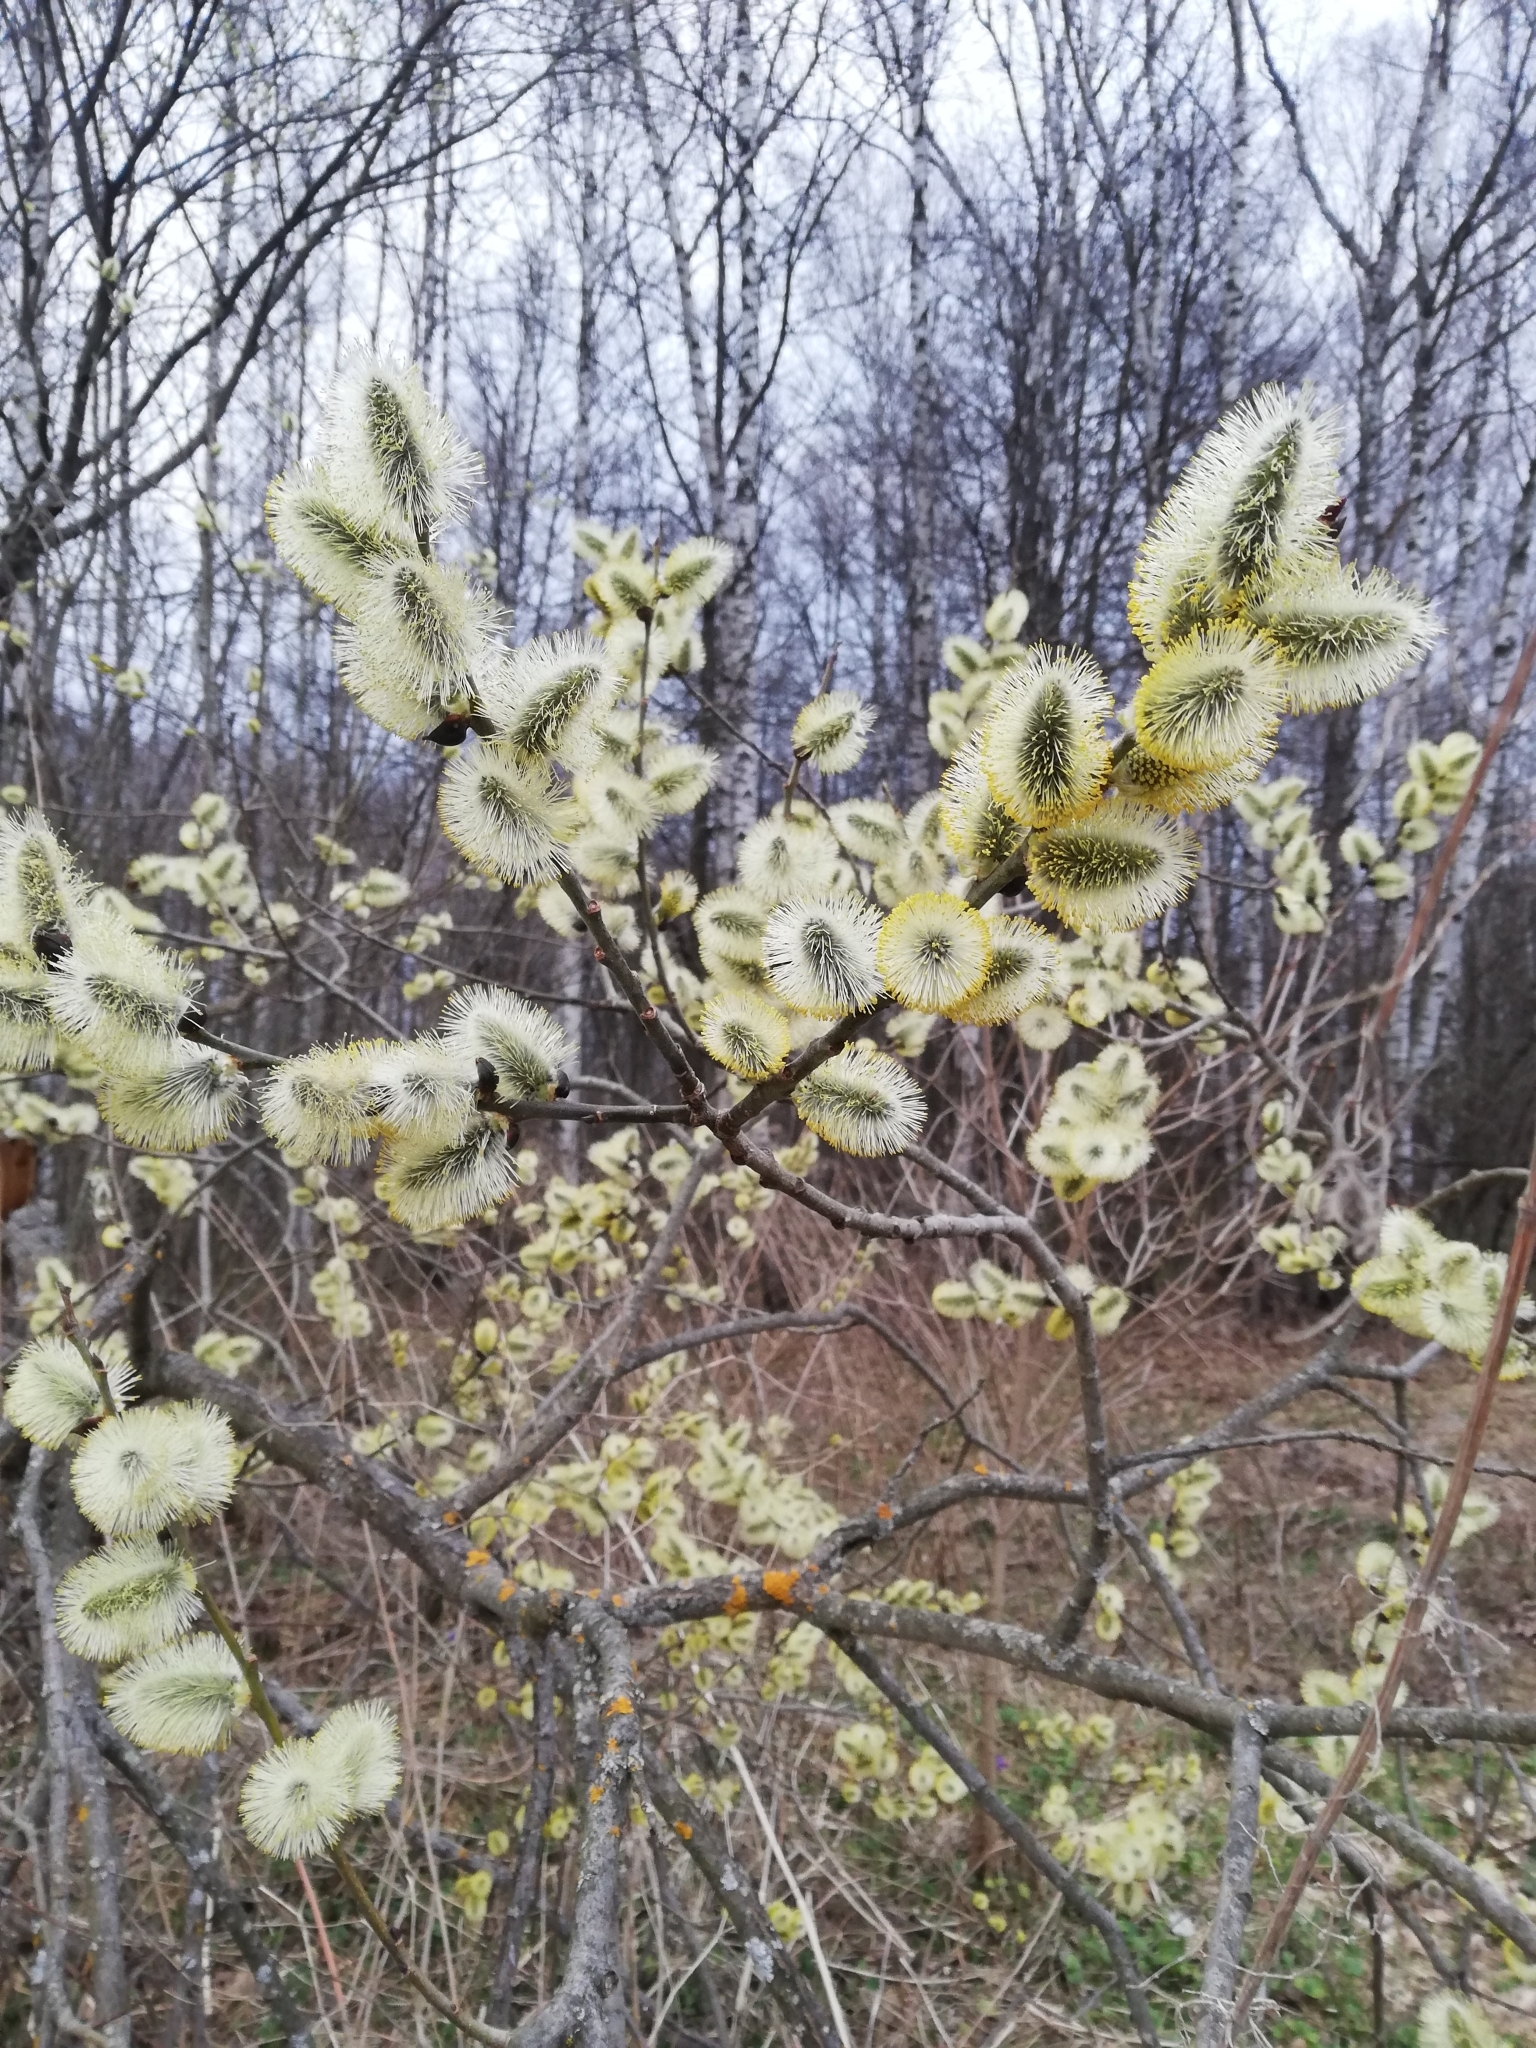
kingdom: Plantae
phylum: Tracheophyta
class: Magnoliopsida
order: Malpighiales
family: Salicaceae
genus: Salix
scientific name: Salix caprea
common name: Goat willow
